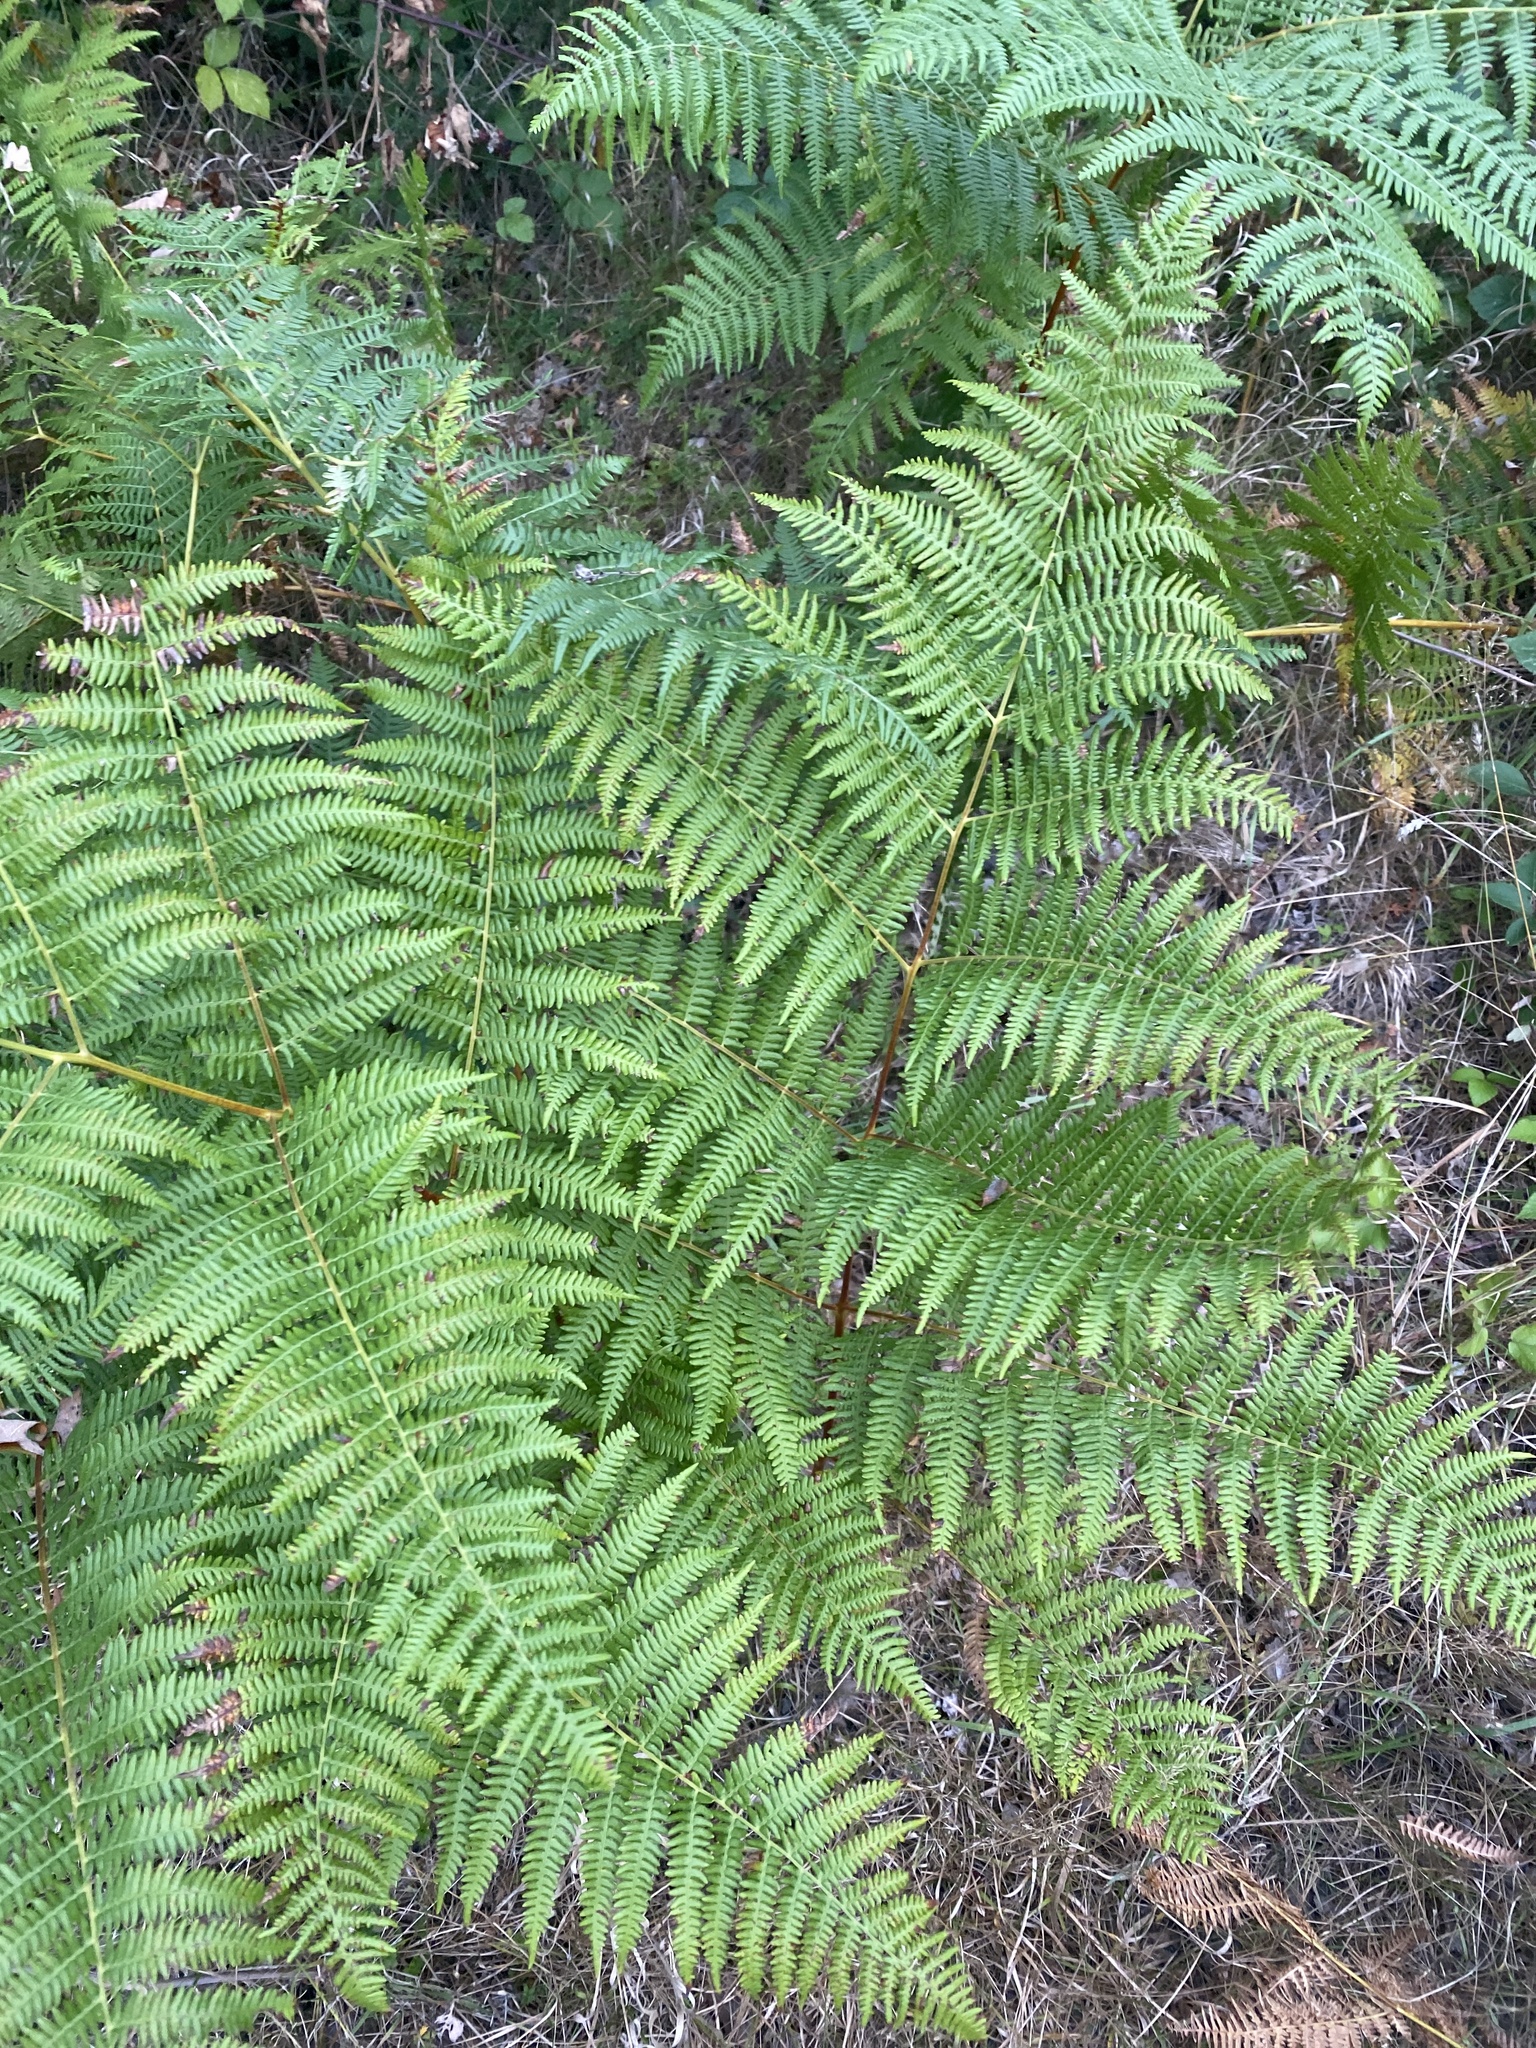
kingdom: Plantae
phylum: Tracheophyta
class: Polypodiopsida
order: Polypodiales
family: Dennstaedtiaceae
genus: Pteridium
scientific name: Pteridium aquilinum
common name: Bracken
